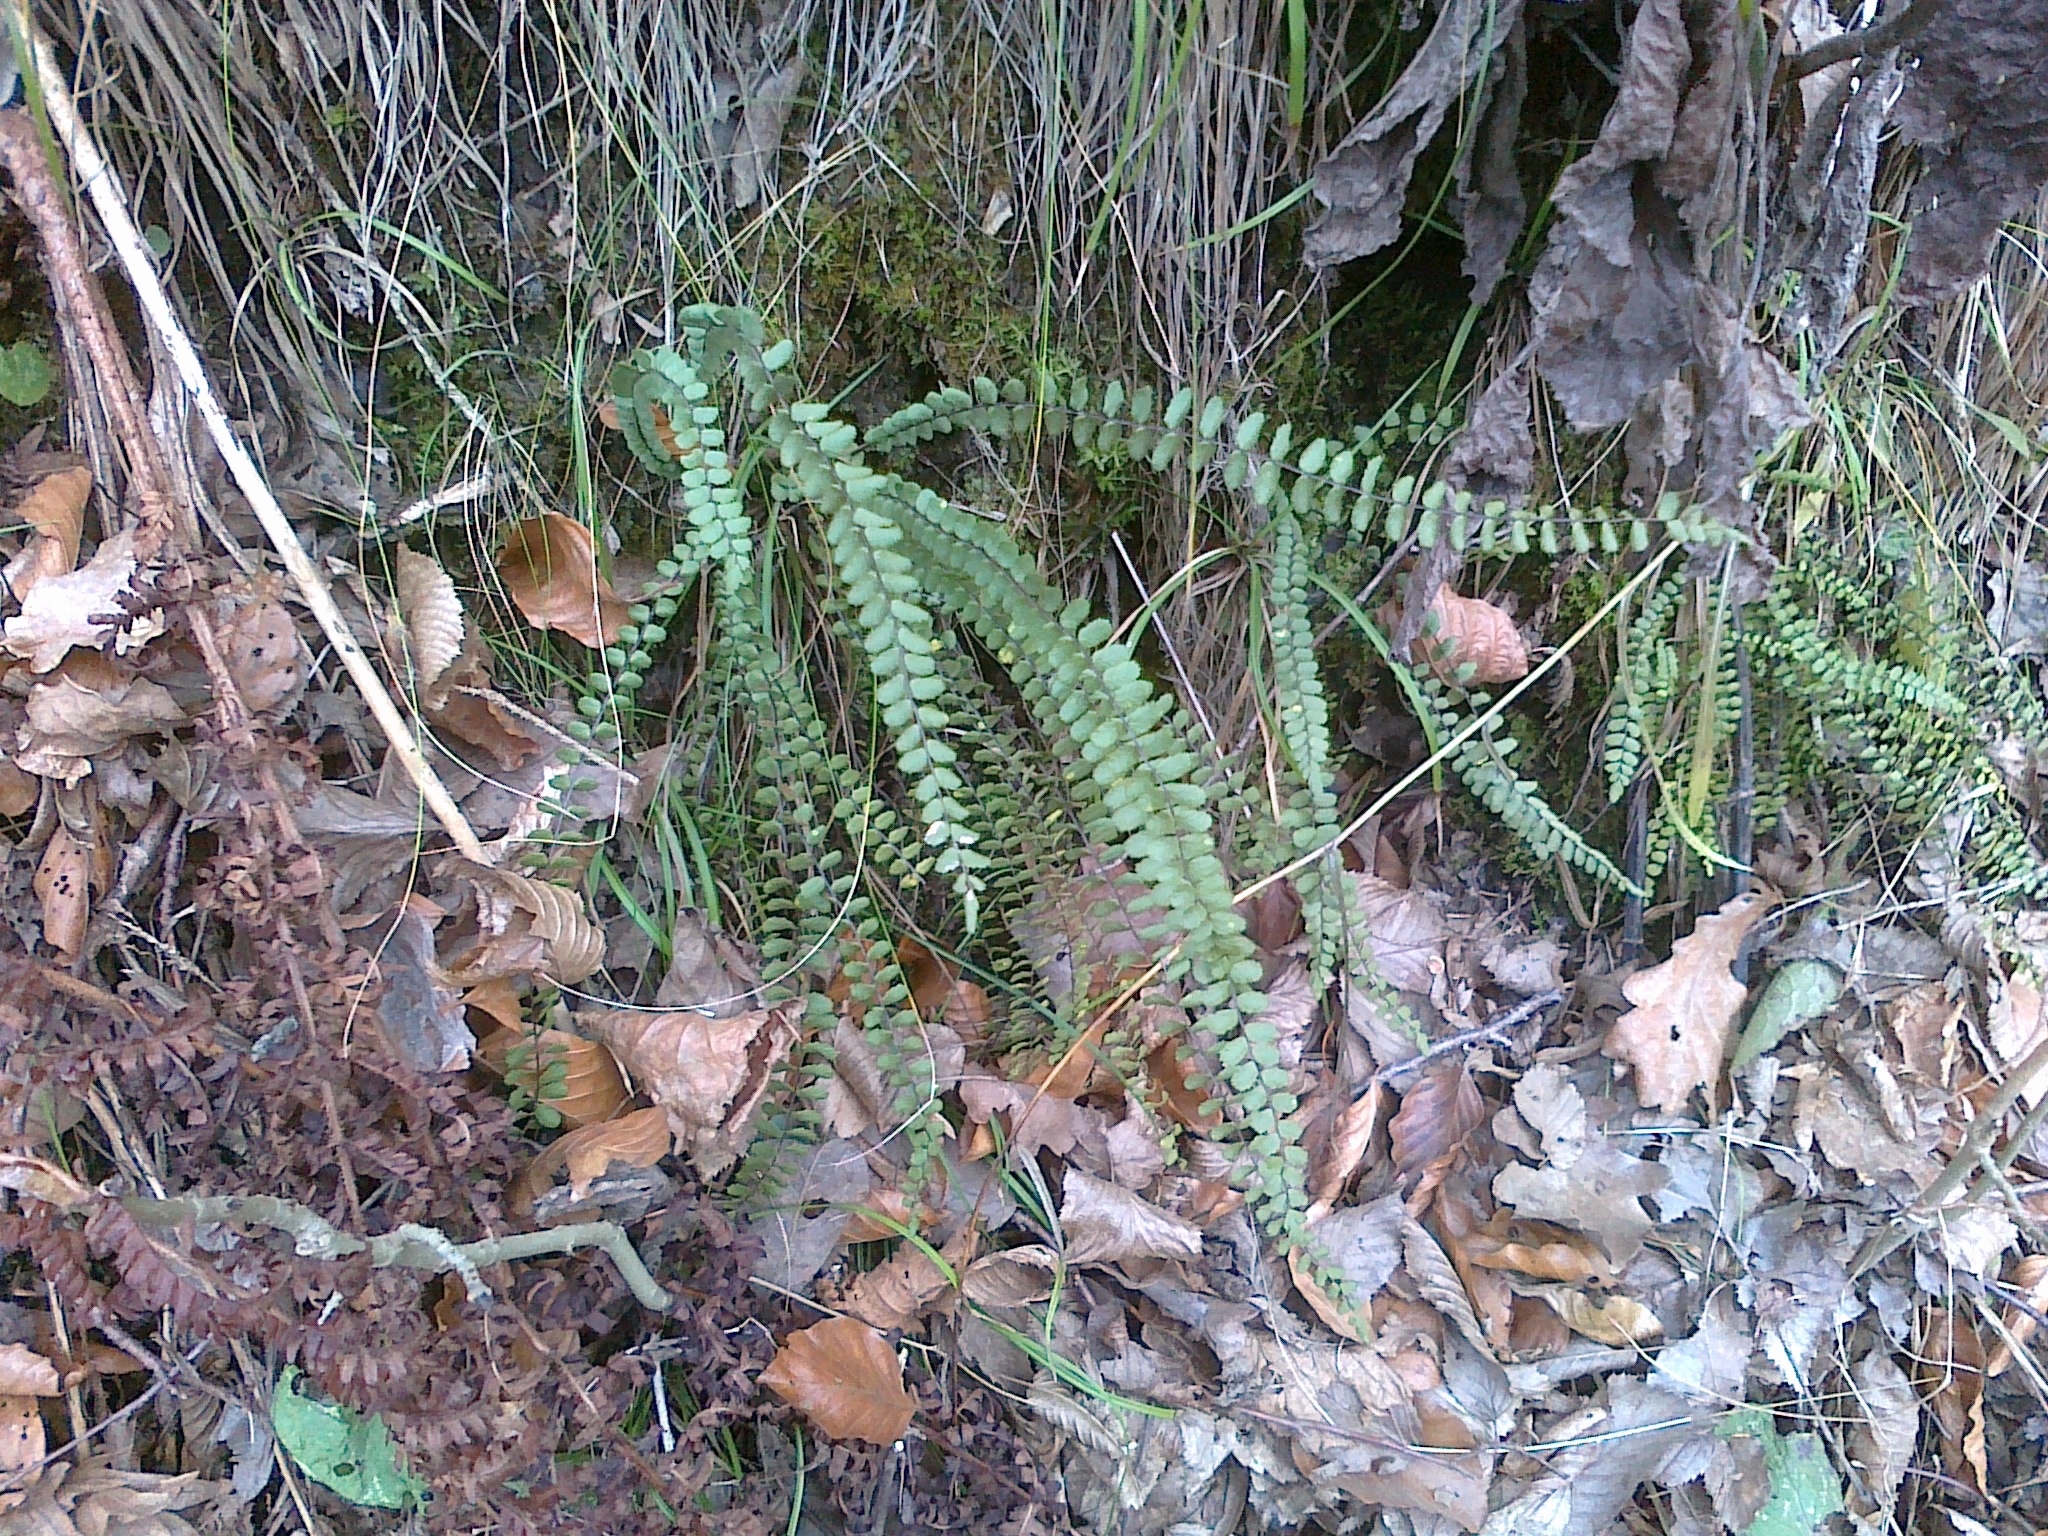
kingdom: Plantae
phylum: Tracheophyta
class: Polypodiopsida
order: Polypodiales
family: Aspleniaceae
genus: Asplenium
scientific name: Asplenium trichomanes
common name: Maidenhair spleenwort
